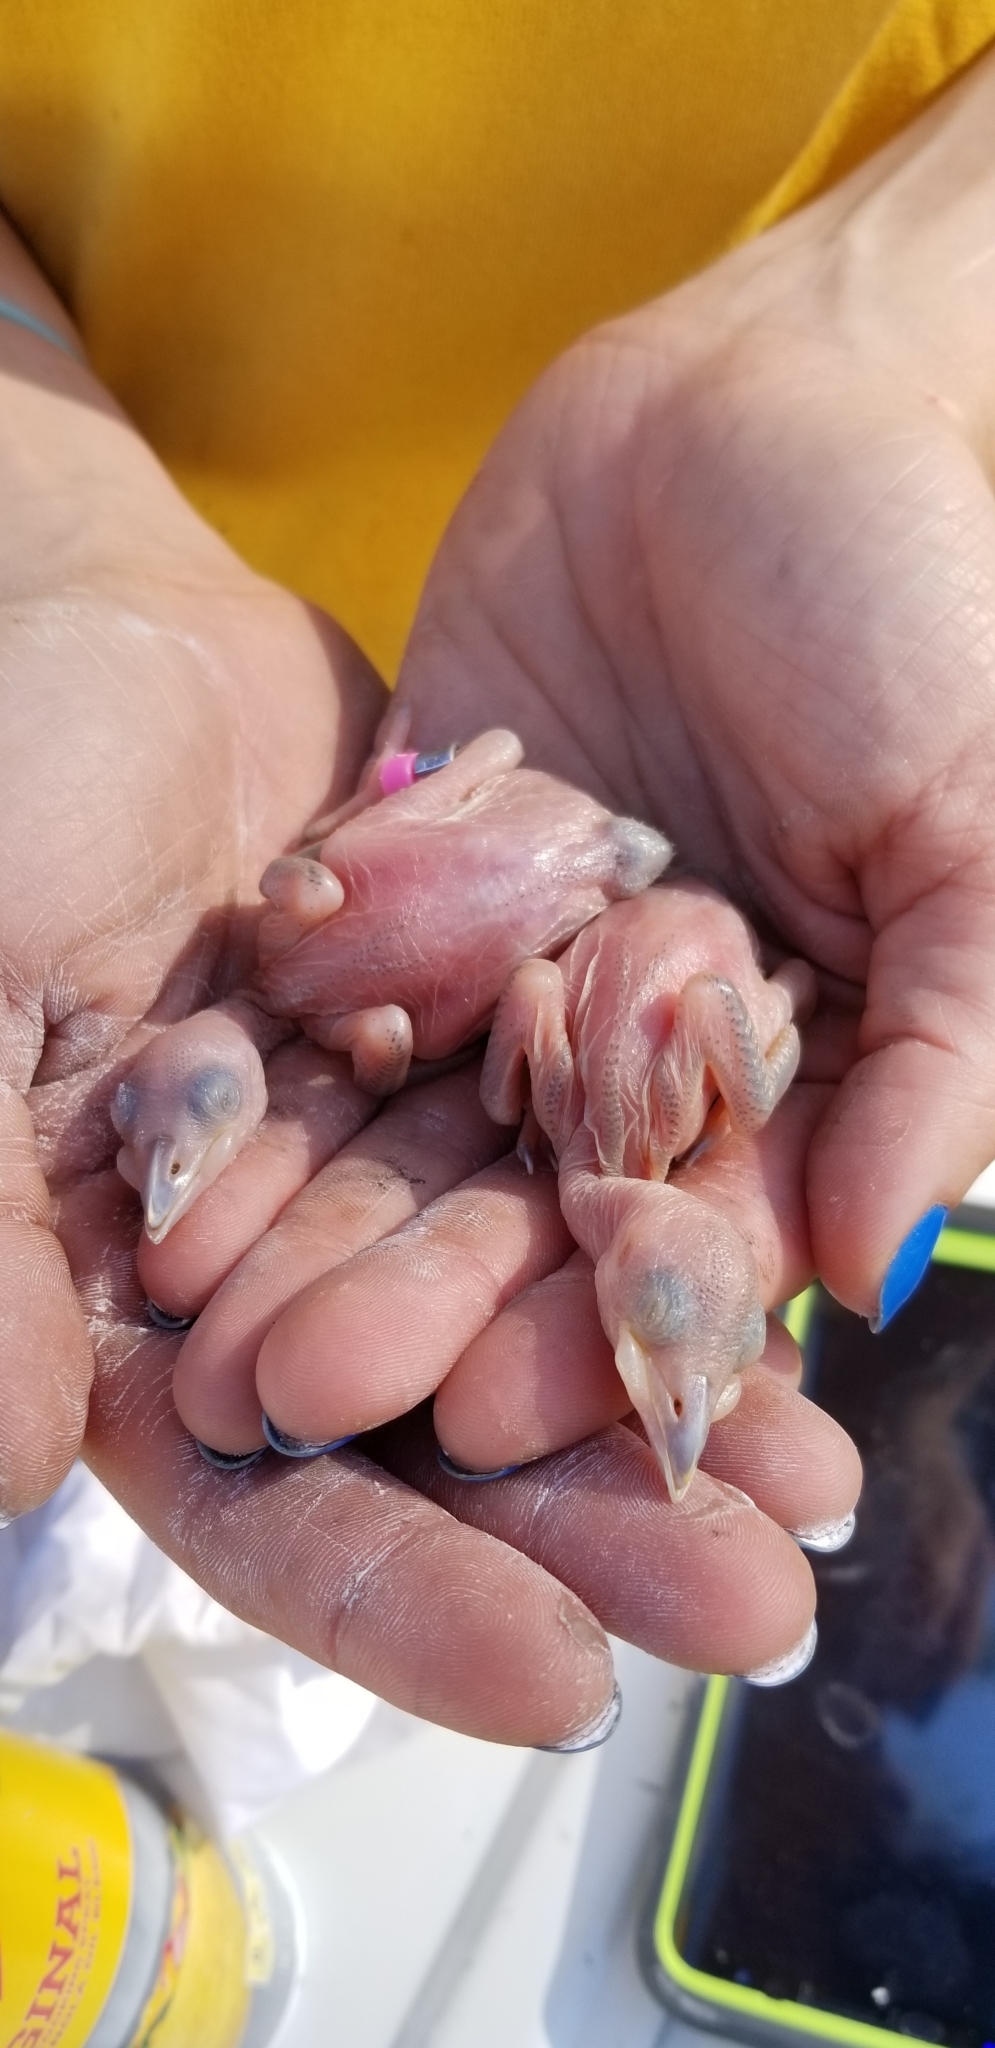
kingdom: Animalia
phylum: Chordata
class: Aves
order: Piciformes
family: Picidae
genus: Leuconotopicus
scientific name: Leuconotopicus borealis
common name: Red-cockaded woodpecker
